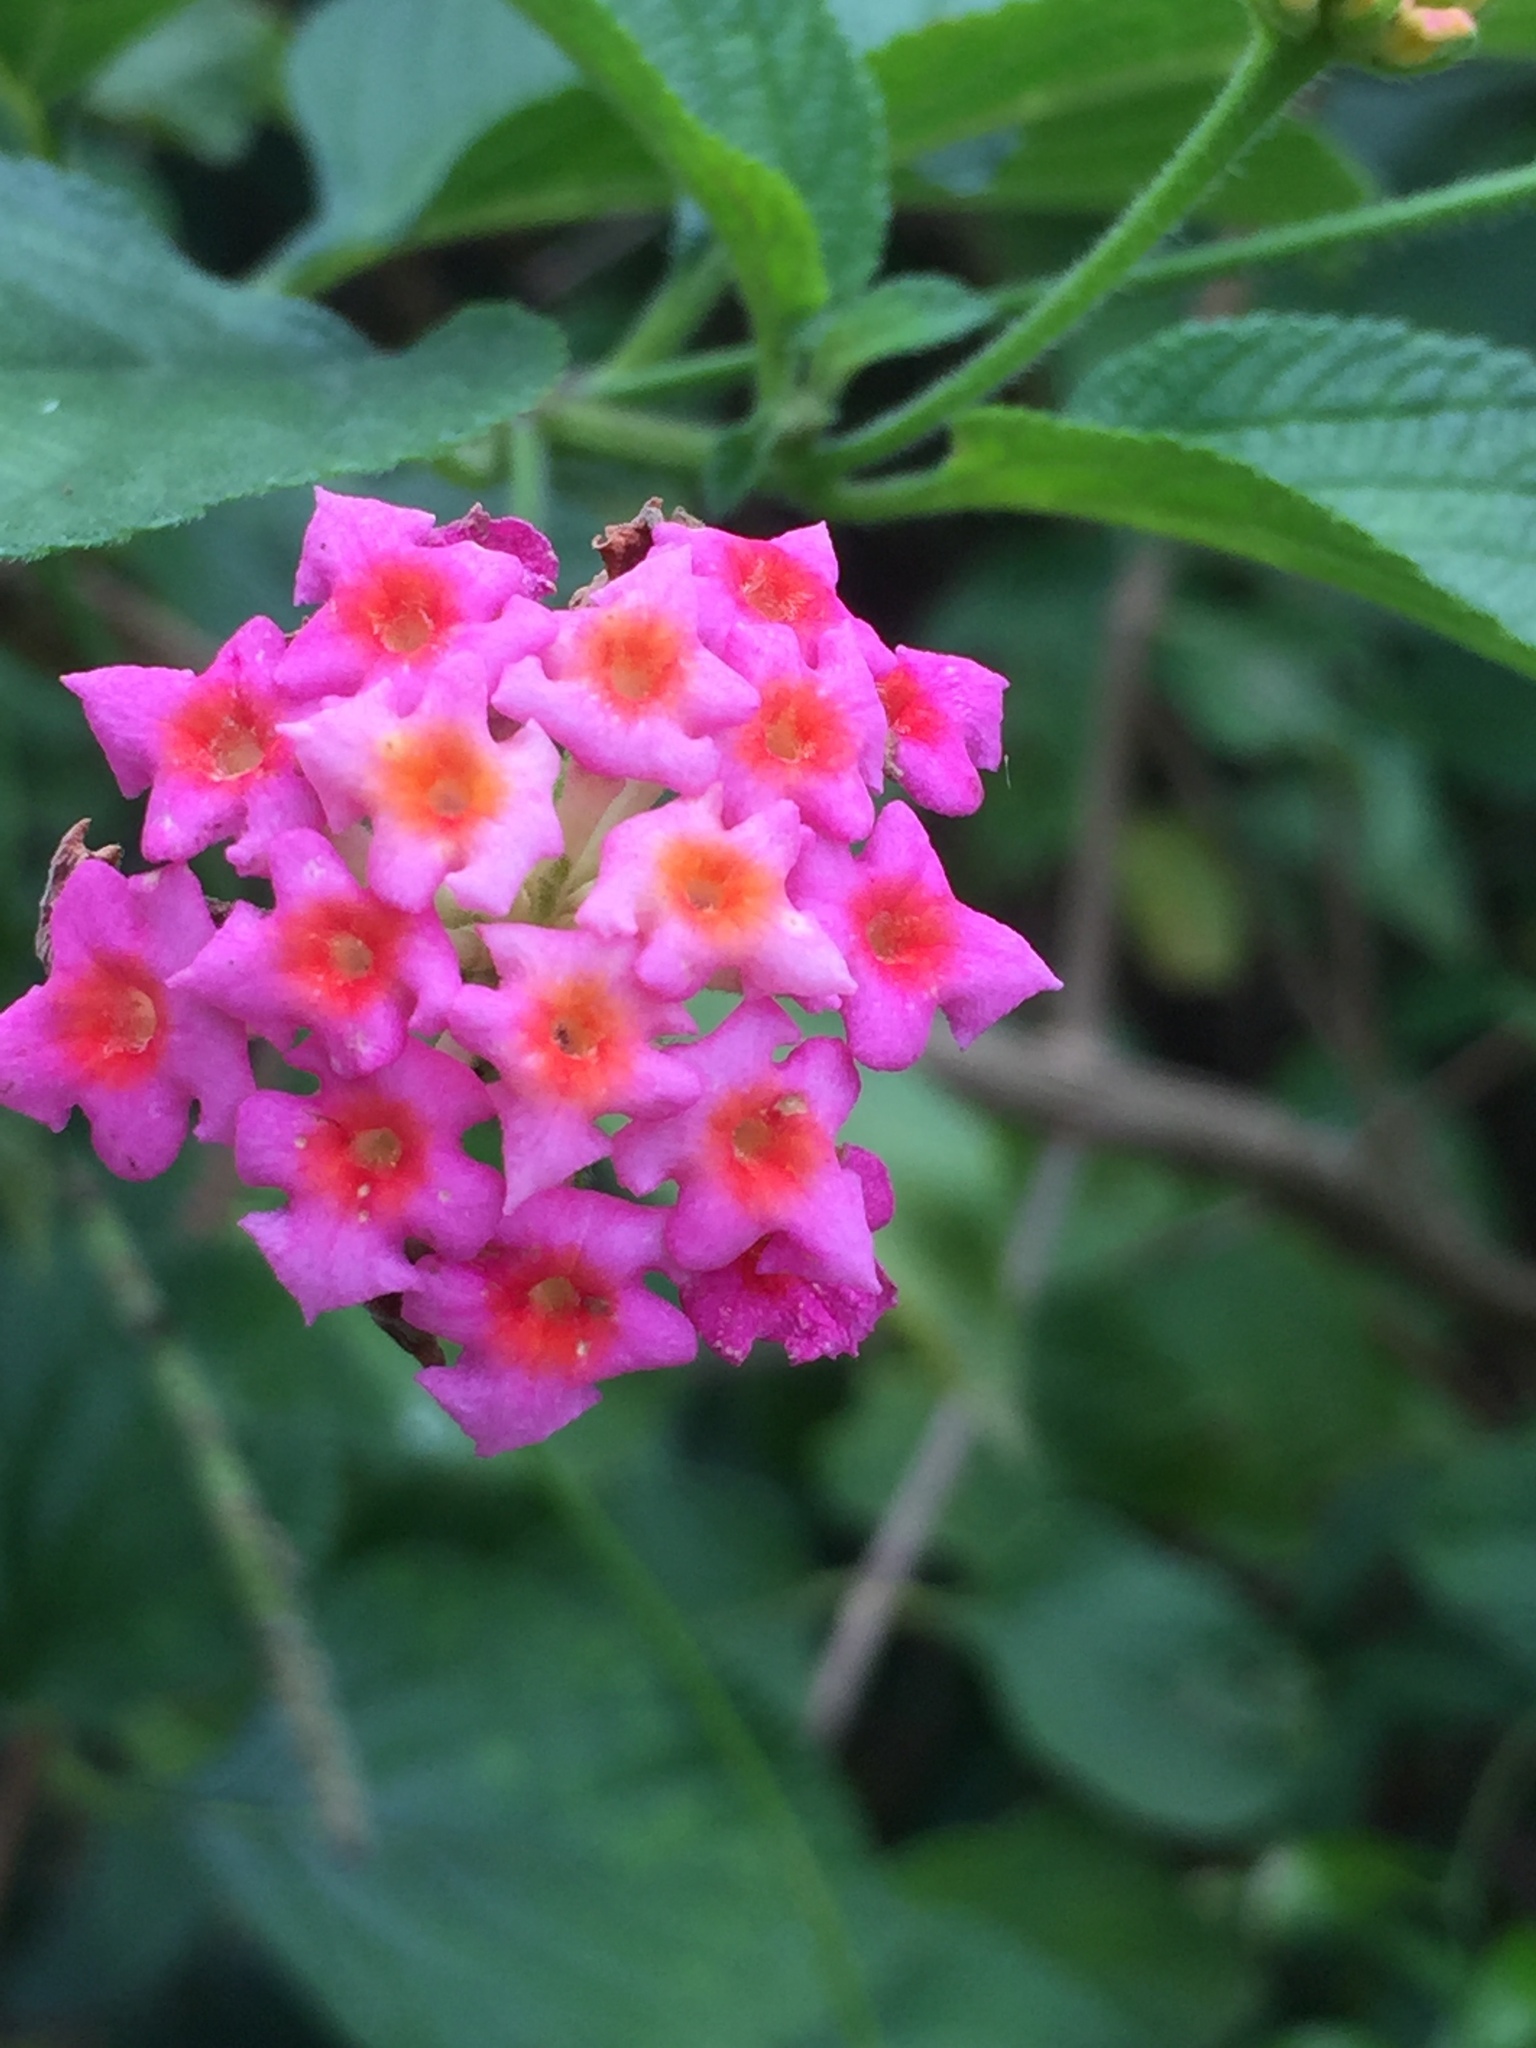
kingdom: Plantae
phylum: Tracheophyta
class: Magnoliopsida
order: Lamiales
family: Verbenaceae
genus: Lantana
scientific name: Lantana camara
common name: Lantana
